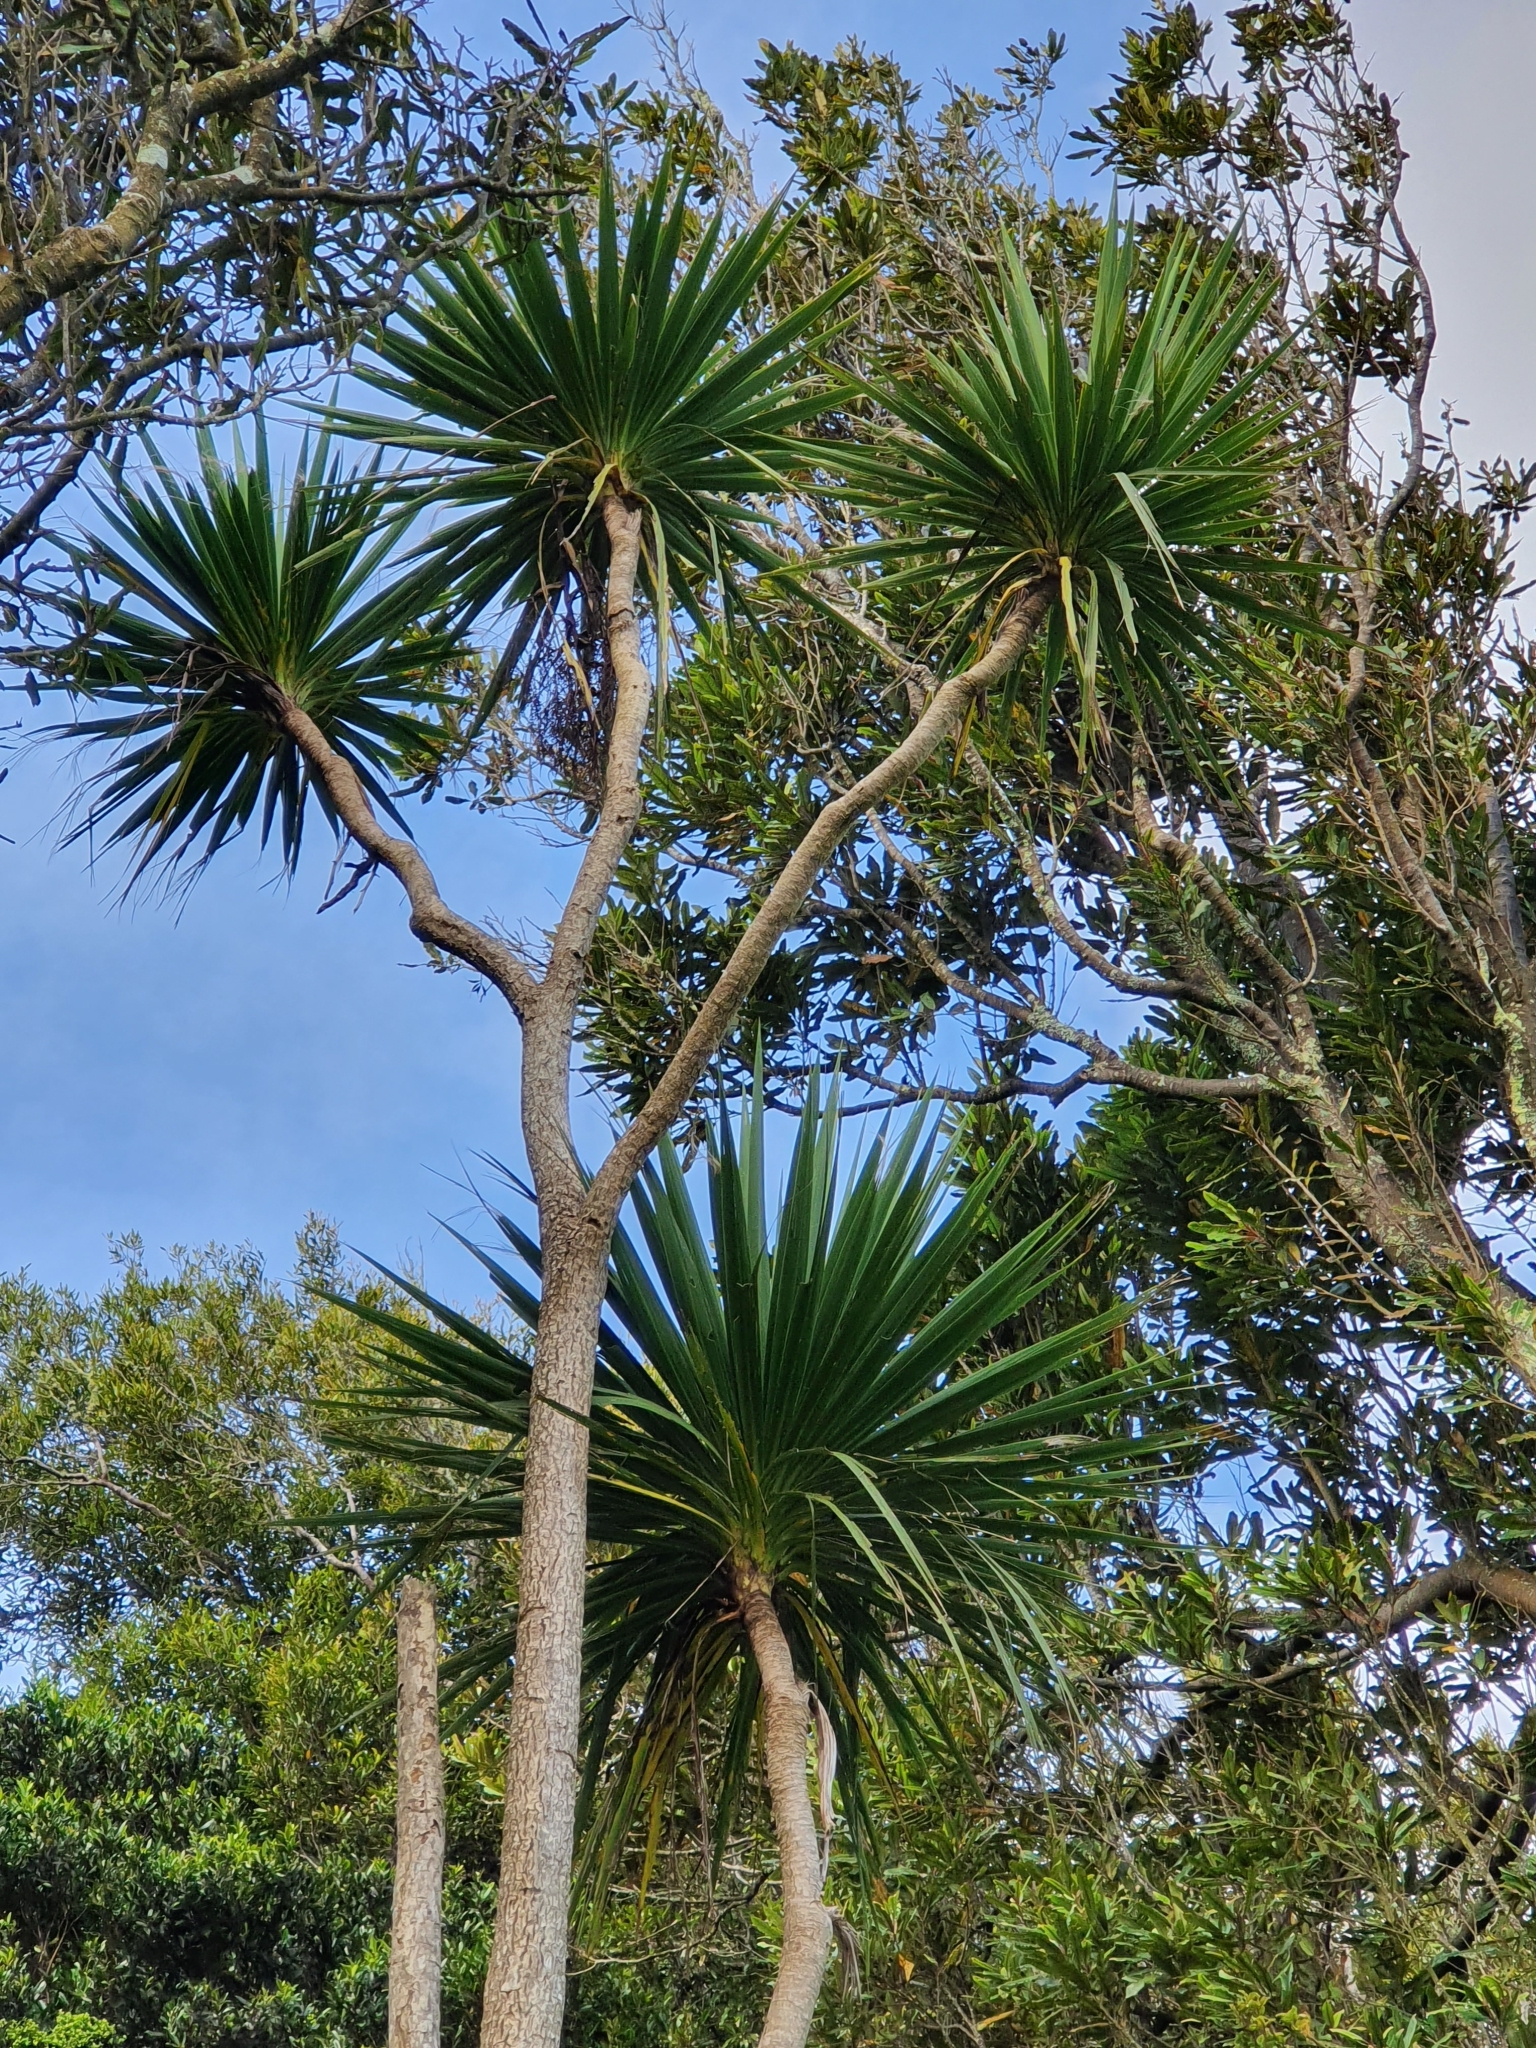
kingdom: Plantae
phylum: Tracheophyta
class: Liliopsida
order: Asparagales
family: Asparagaceae
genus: Cordyline
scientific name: Cordyline australis
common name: Cabbage-palm
